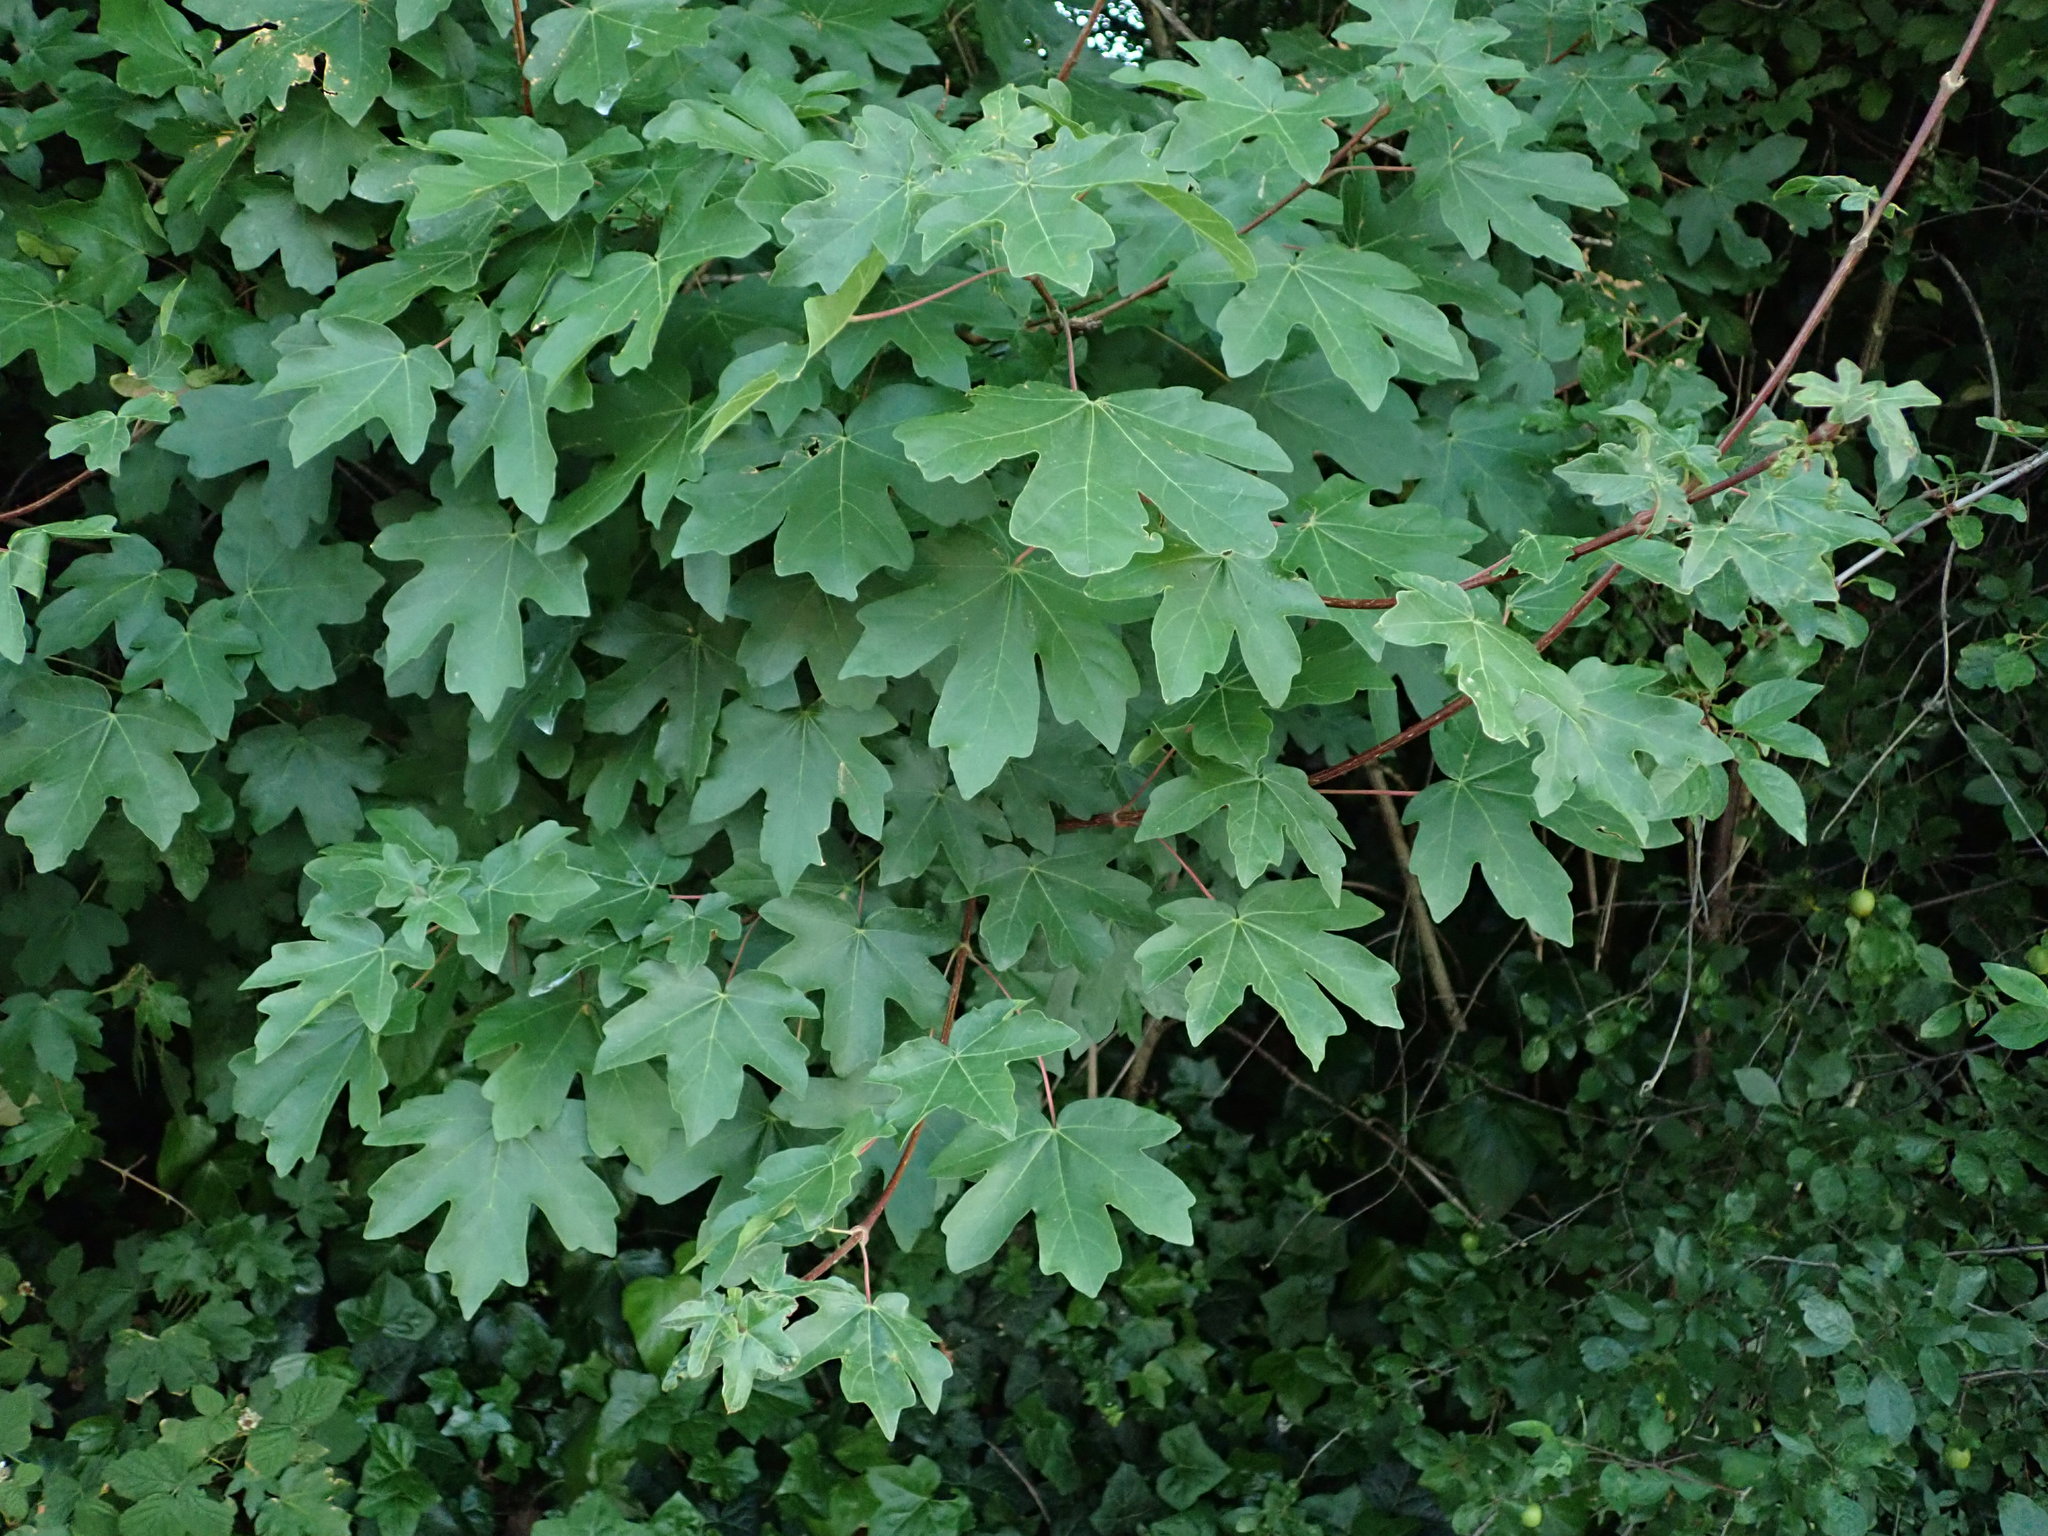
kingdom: Plantae
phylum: Tracheophyta
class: Magnoliopsida
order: Sapindales
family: Sapindaceae
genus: Acer
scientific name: Acer campestre
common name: Field maple
